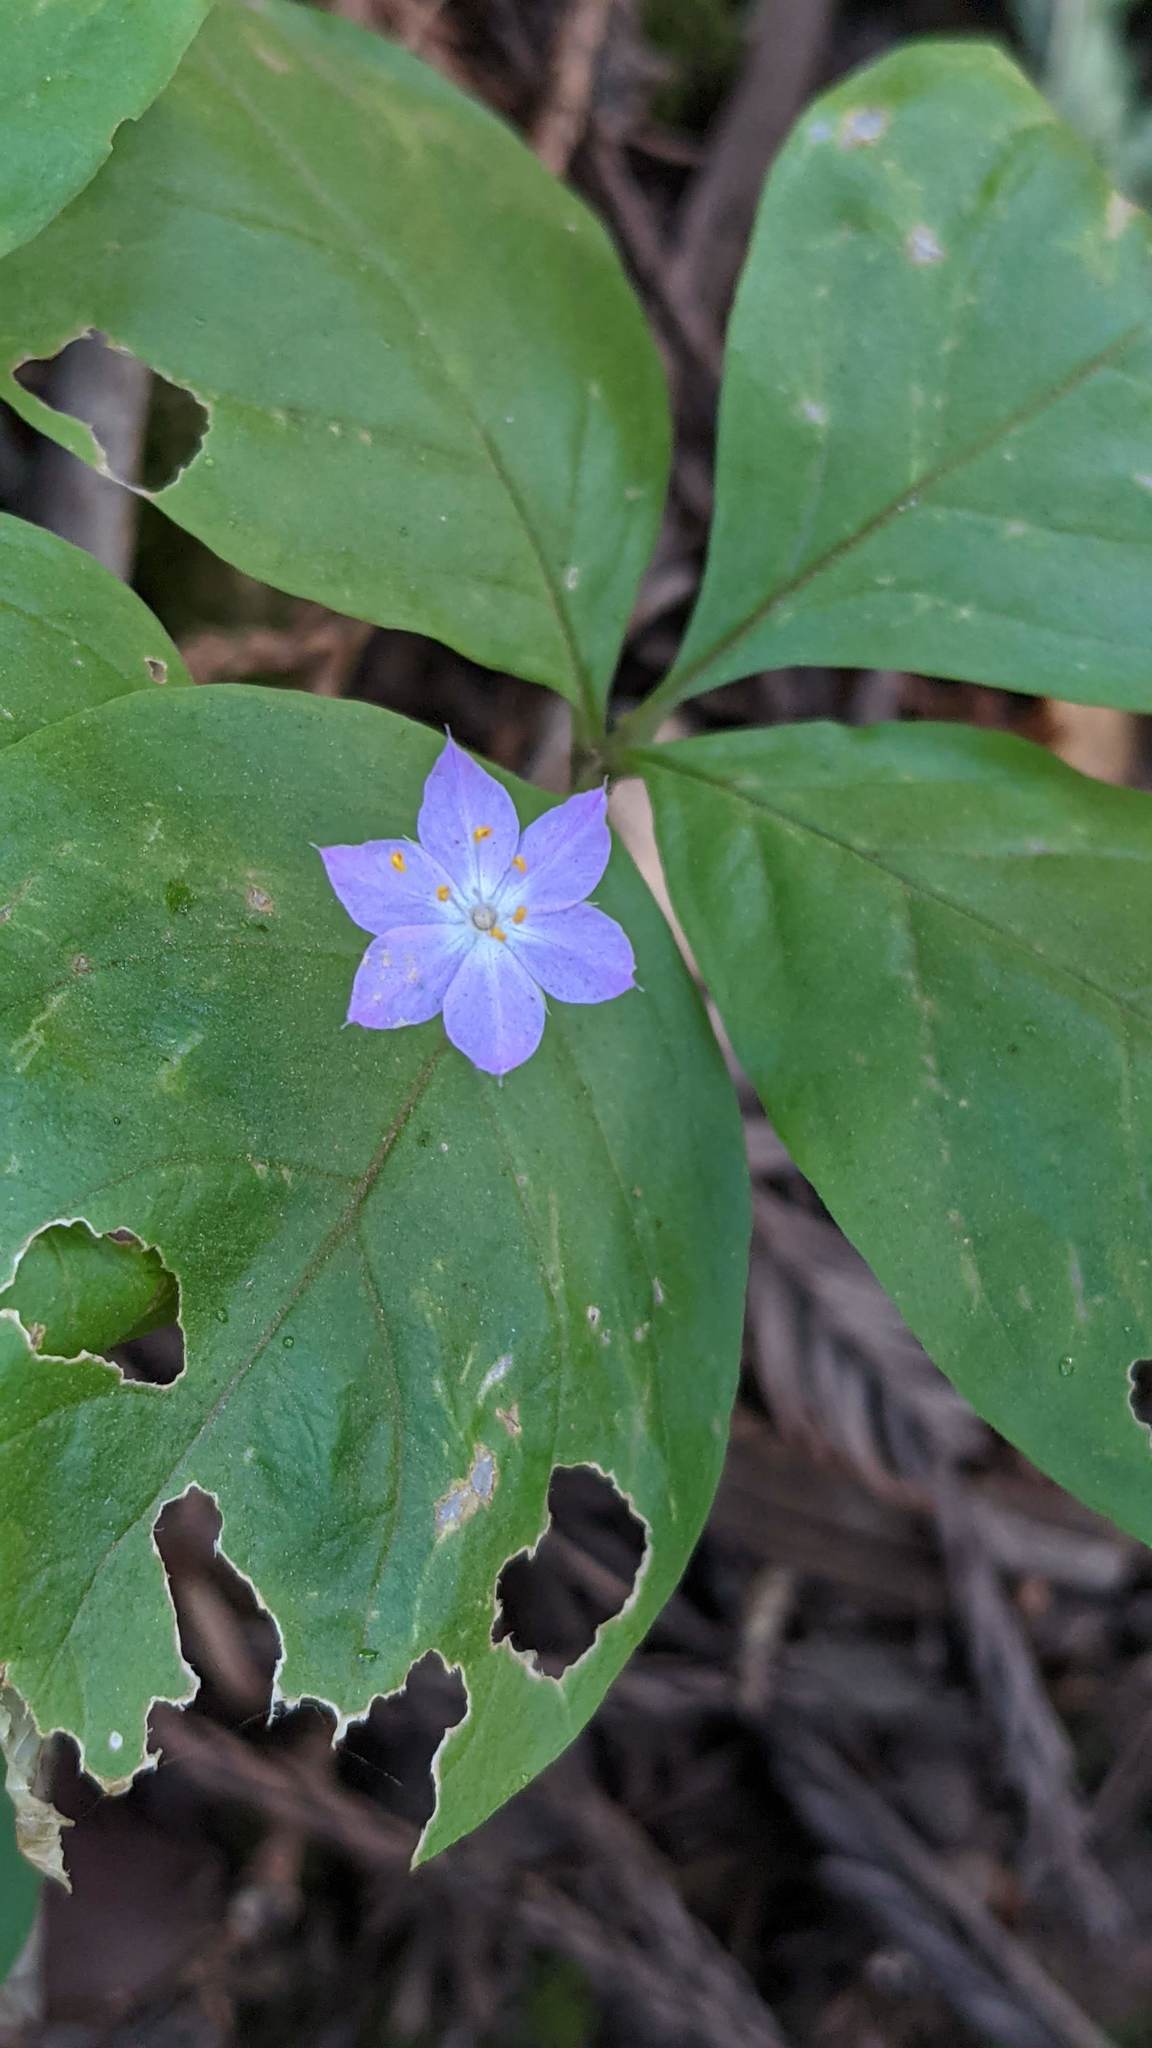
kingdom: Plantae
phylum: Tracheophyta
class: Magnoliopsida
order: Ericales
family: Primulaceae
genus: Lysimachia
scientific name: Lysimachia latifolia
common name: Pacific starflower
